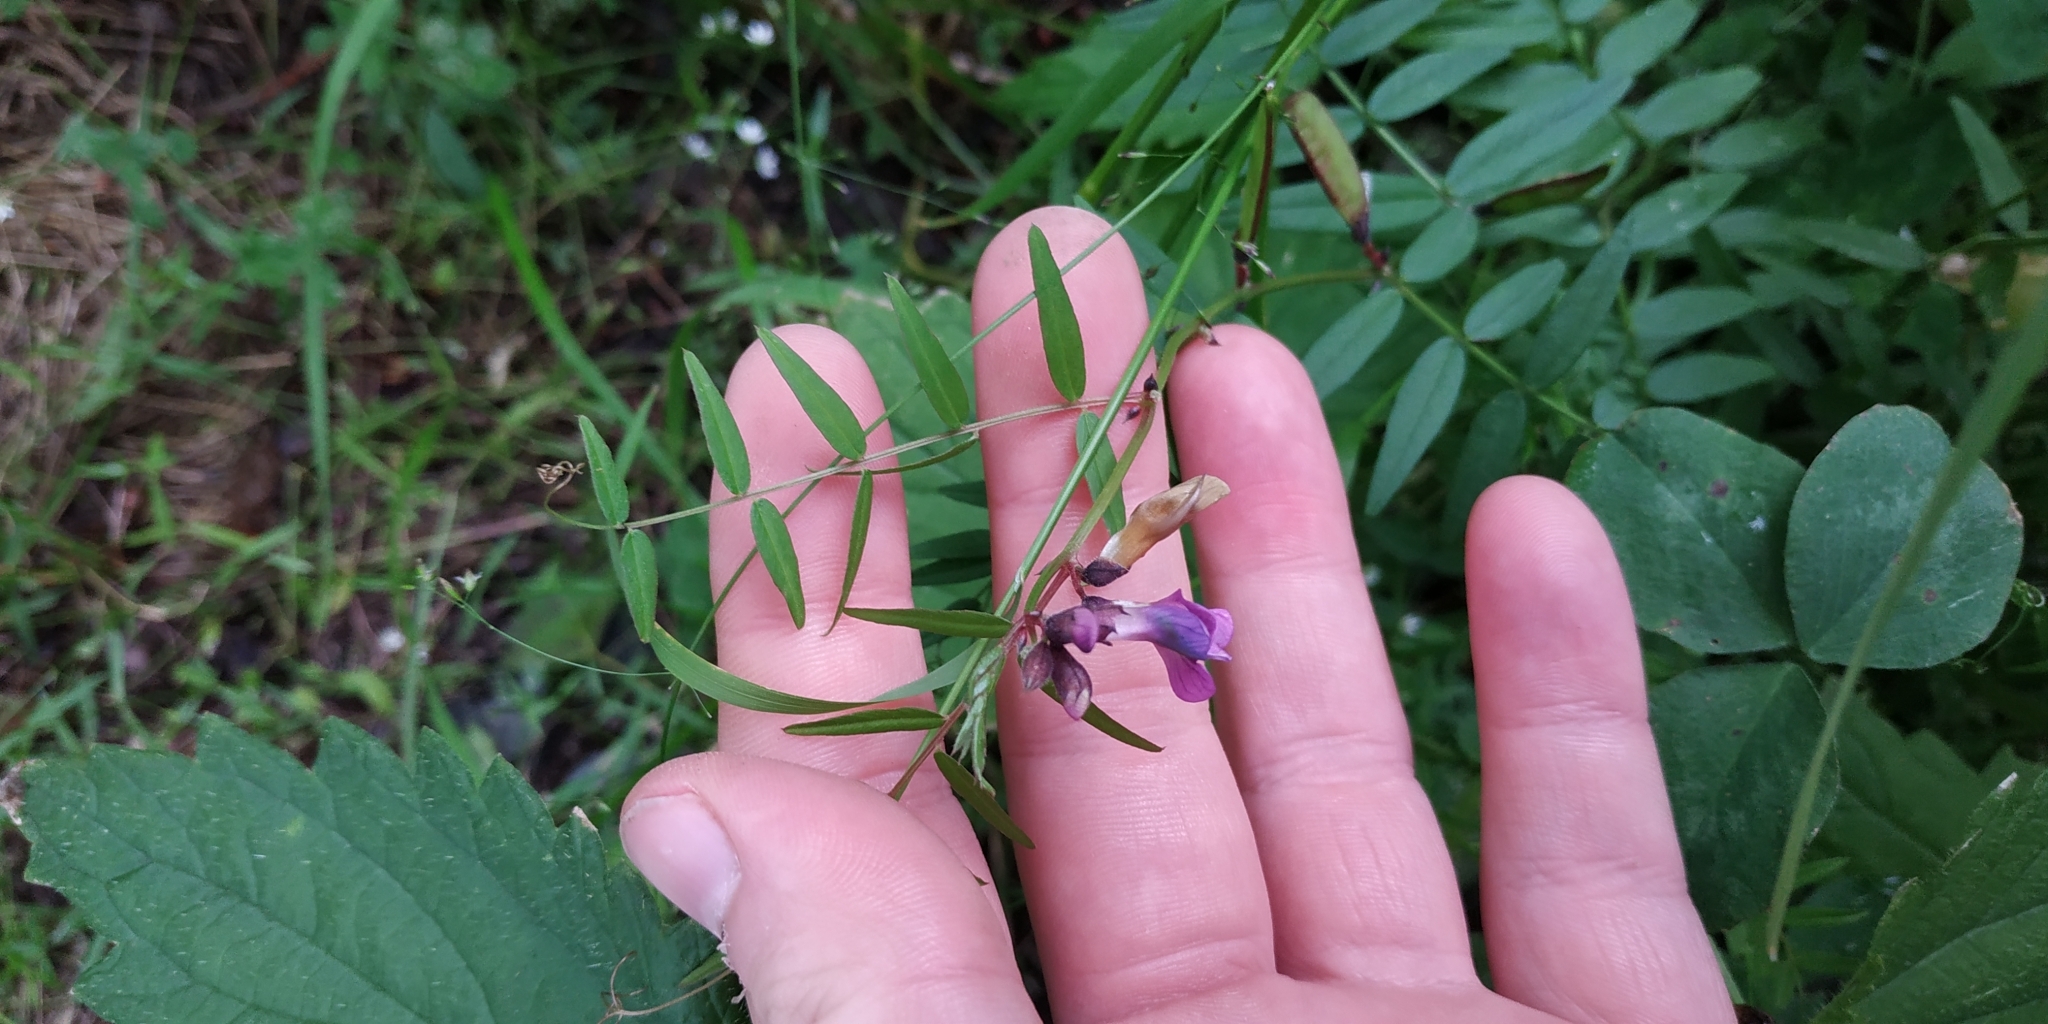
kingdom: Plantae
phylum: Tracheophyta
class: Magnoliopsida
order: Fabales
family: Fabaceae
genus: Vicia
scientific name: Vicia sepium
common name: Bush vetch
